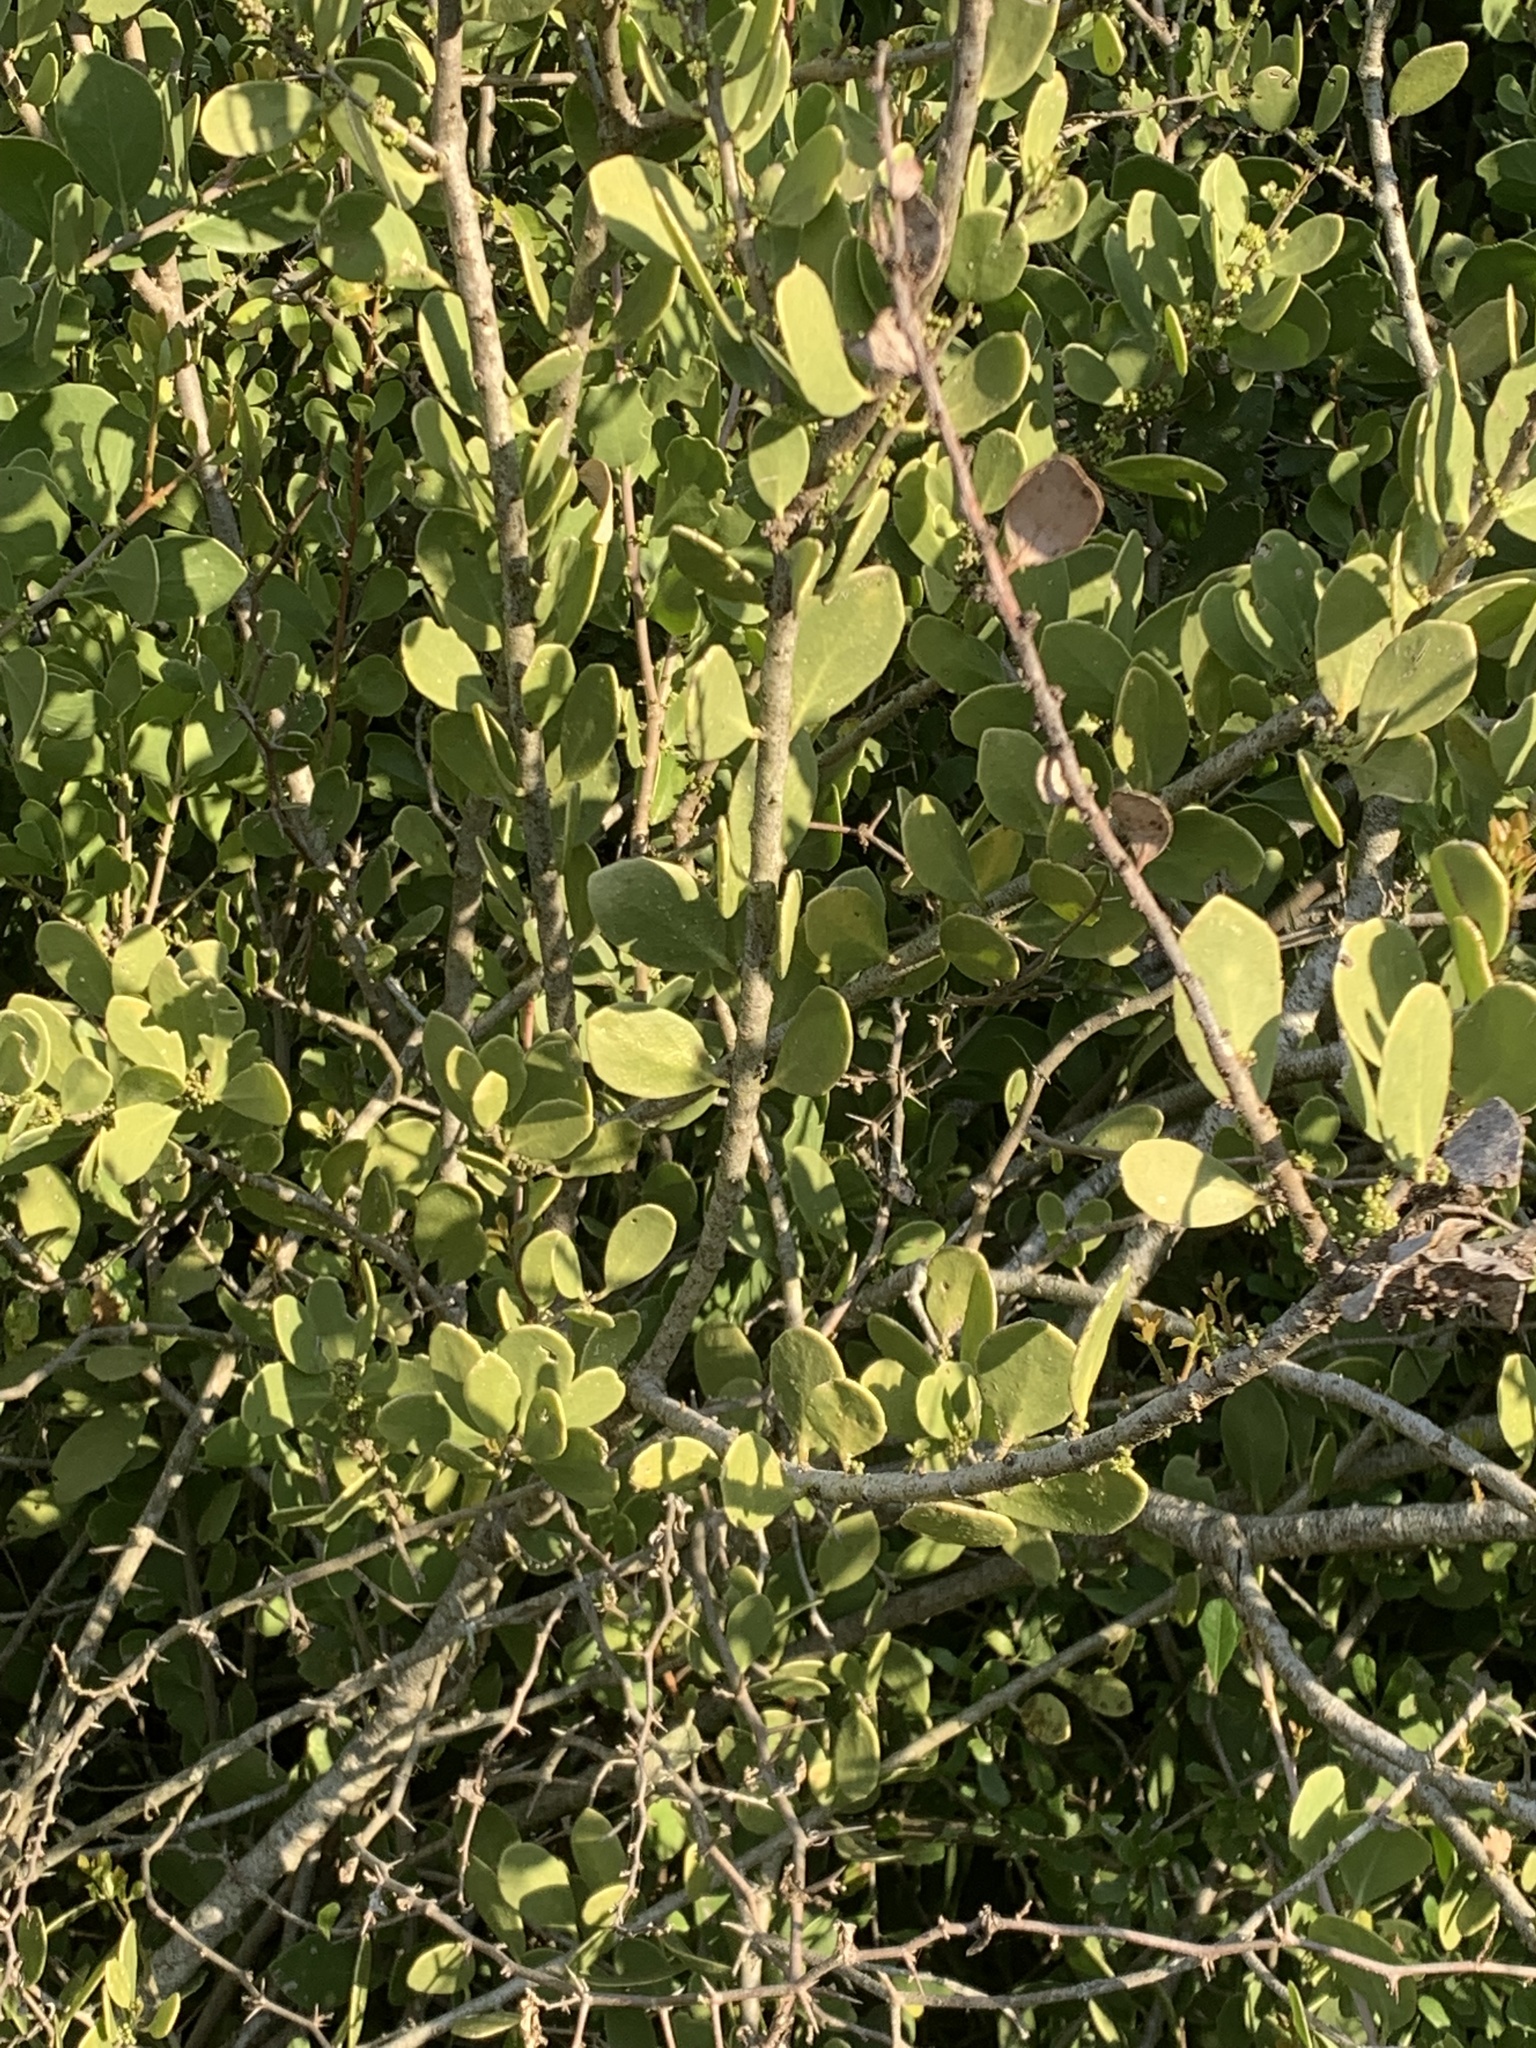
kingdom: Plantae
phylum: Tracheophyta
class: Magnoliopsida
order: Celastrales
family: Celastraceae
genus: Tricerma
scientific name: Tricerma vitis-idaeum
